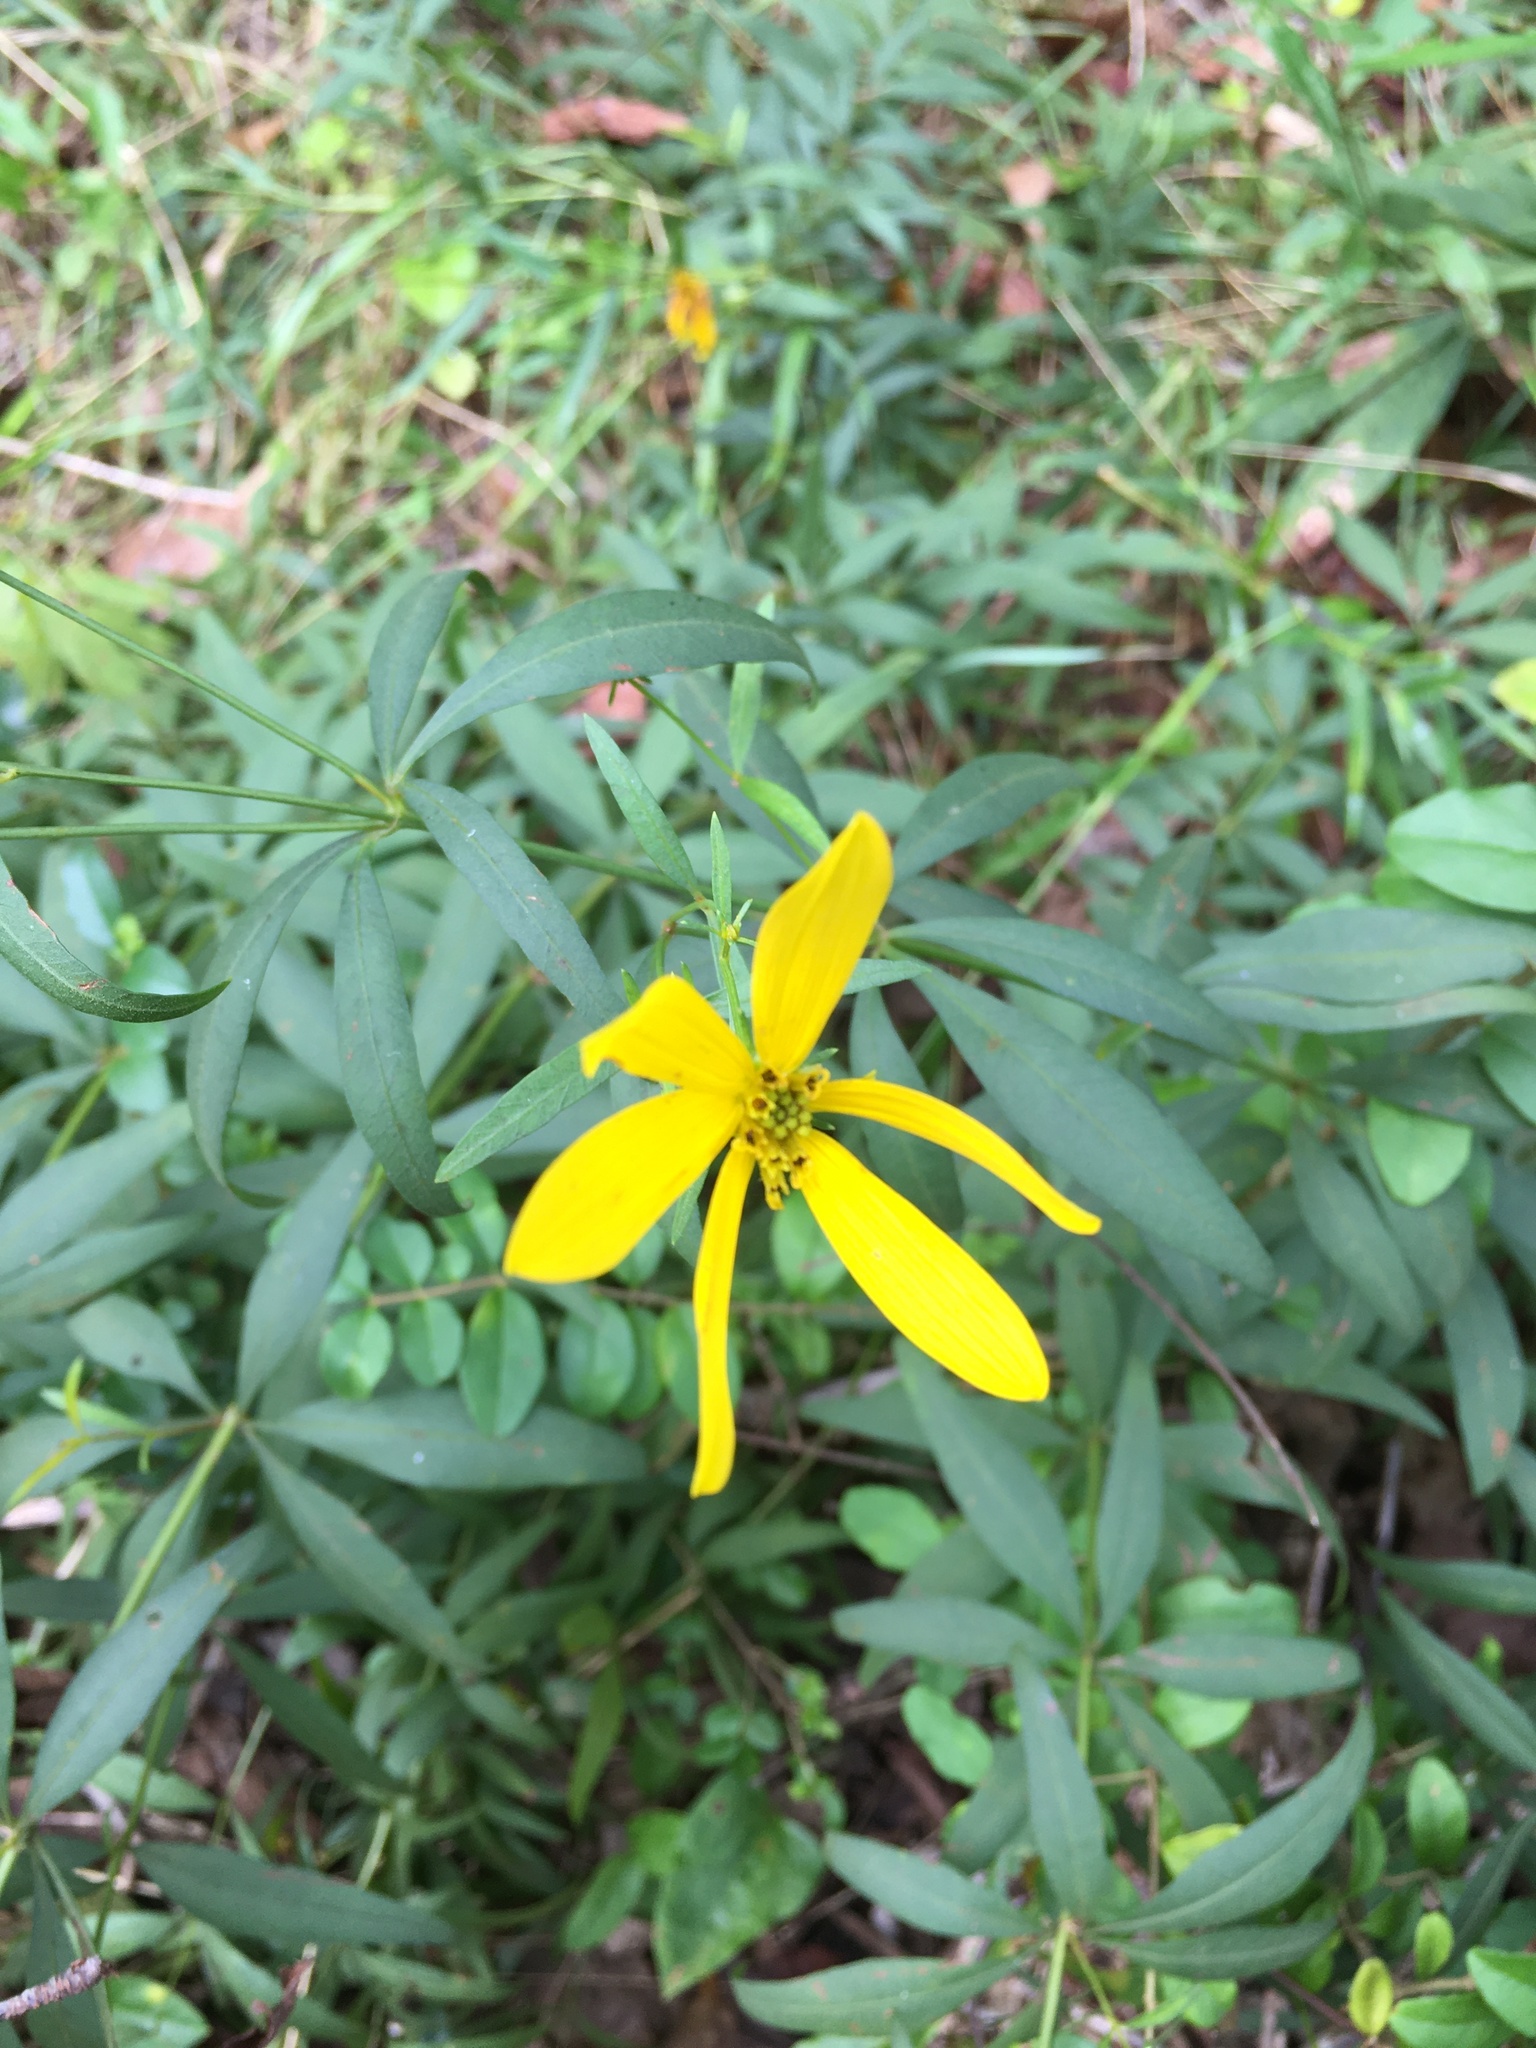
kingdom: Plantae
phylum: Tracheophyta
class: Magnoliopsida
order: Asterales
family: Asteraceae
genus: Coreopsis
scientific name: Coreopsis major
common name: Forest tickseed
